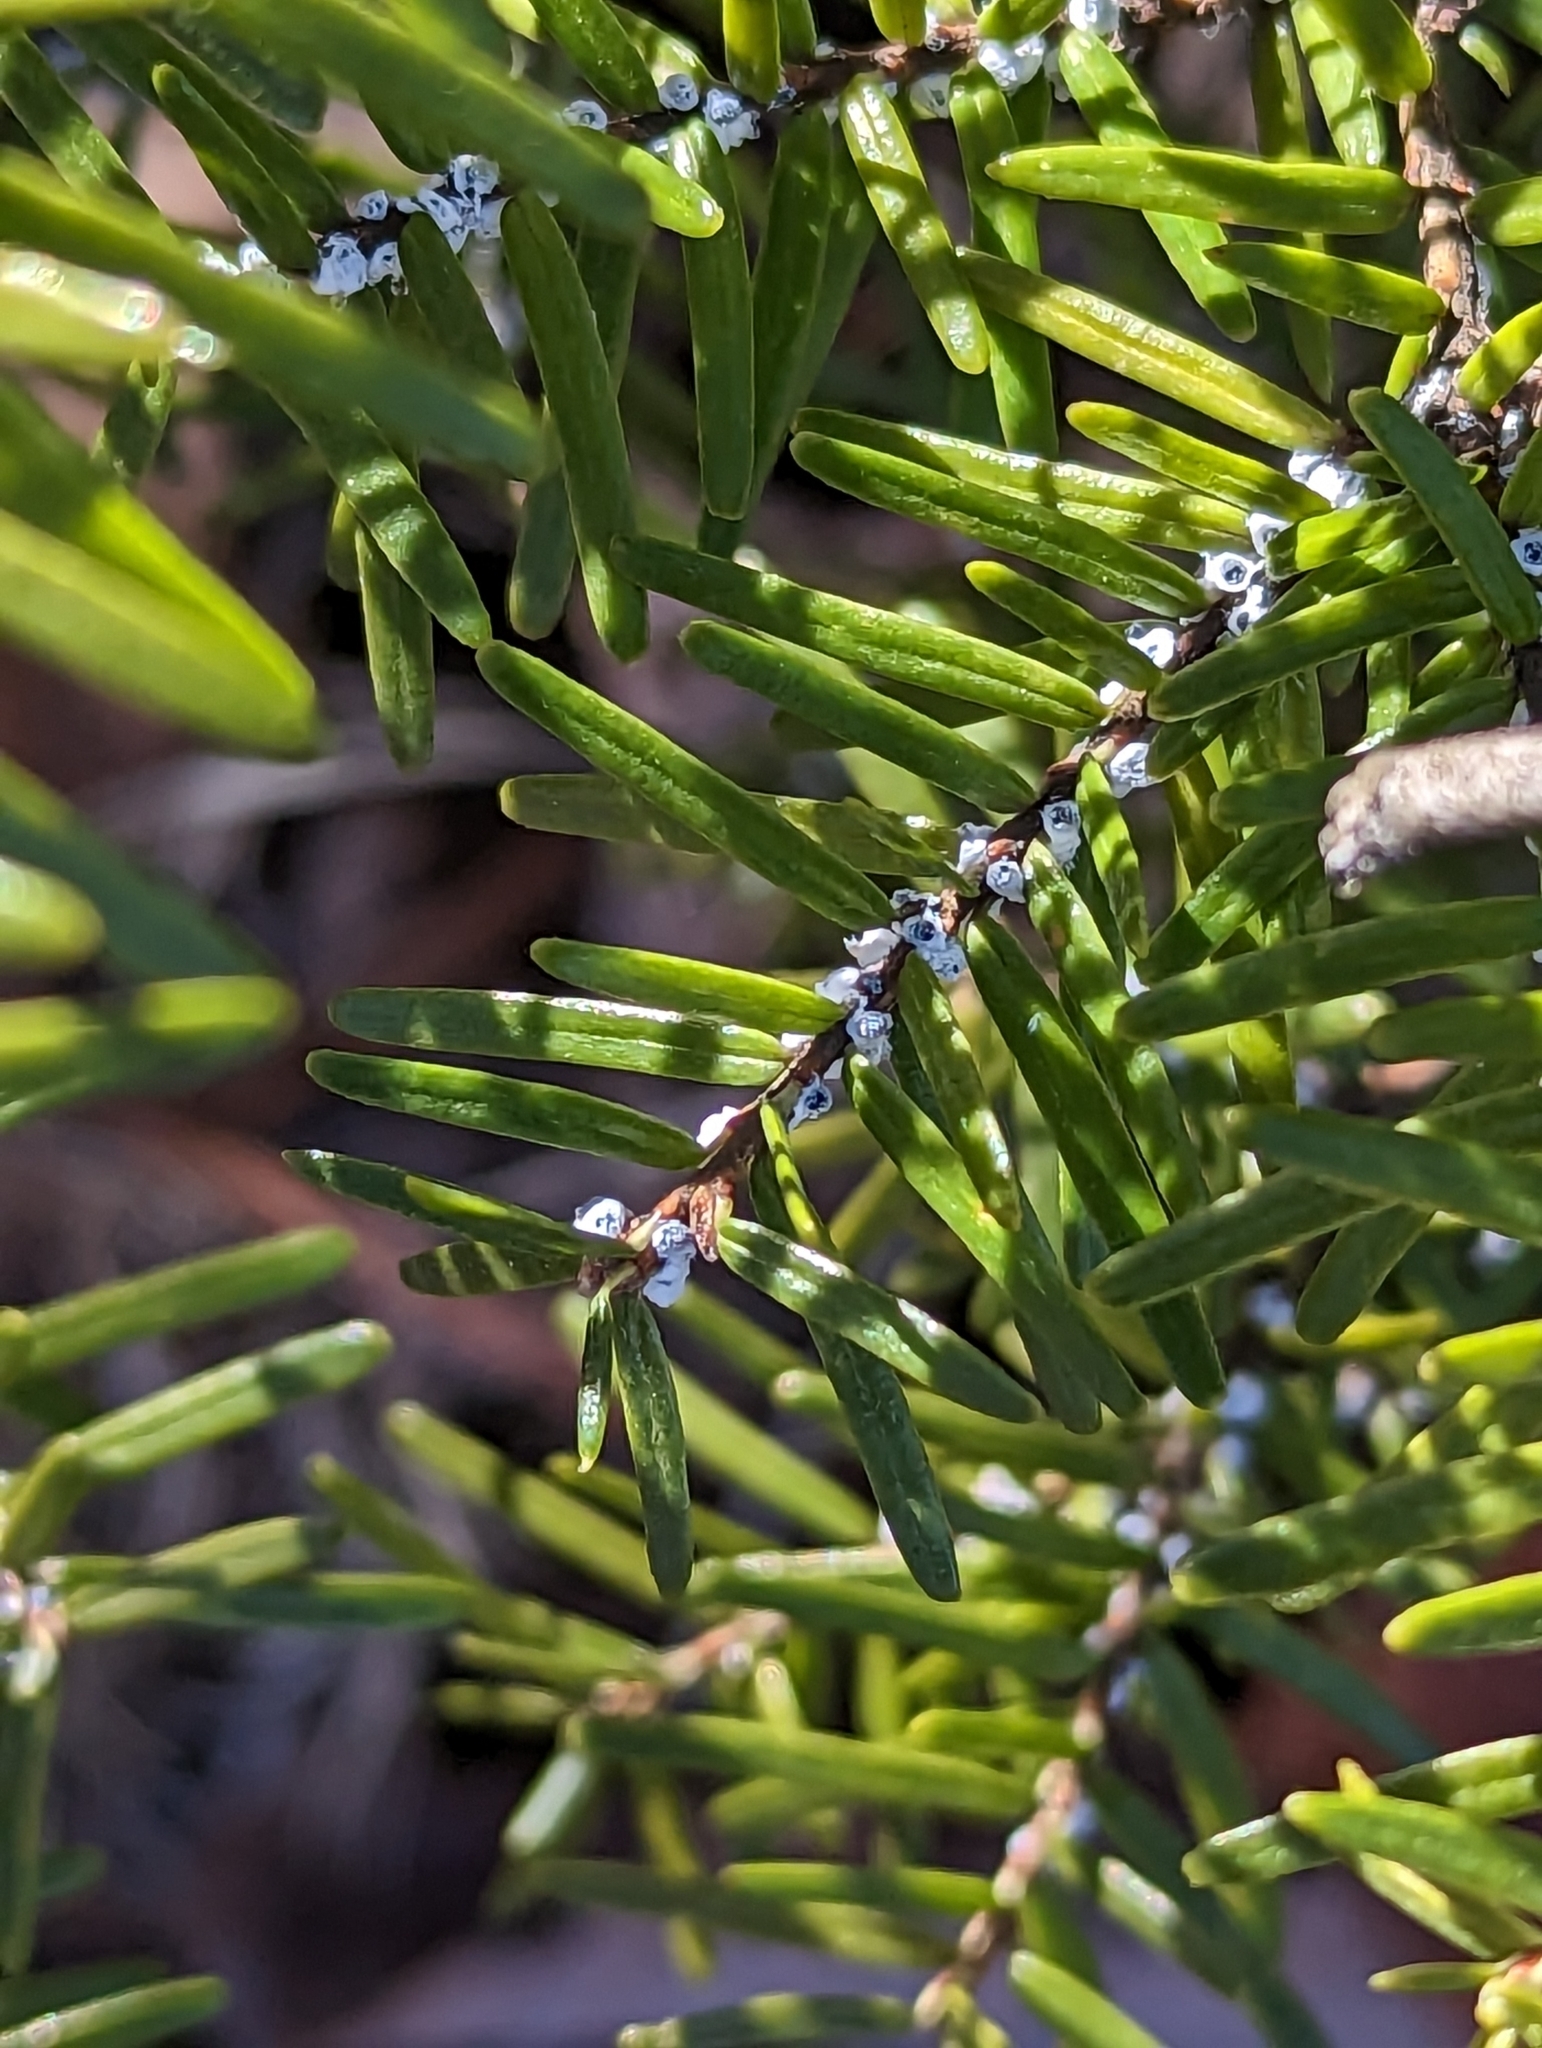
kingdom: Animalia
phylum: Arthropoda
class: Insecta
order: Hemiptera
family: Adelgidae
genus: Adelges
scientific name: Adelges tsugae
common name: Hemlock woolly adelgid
